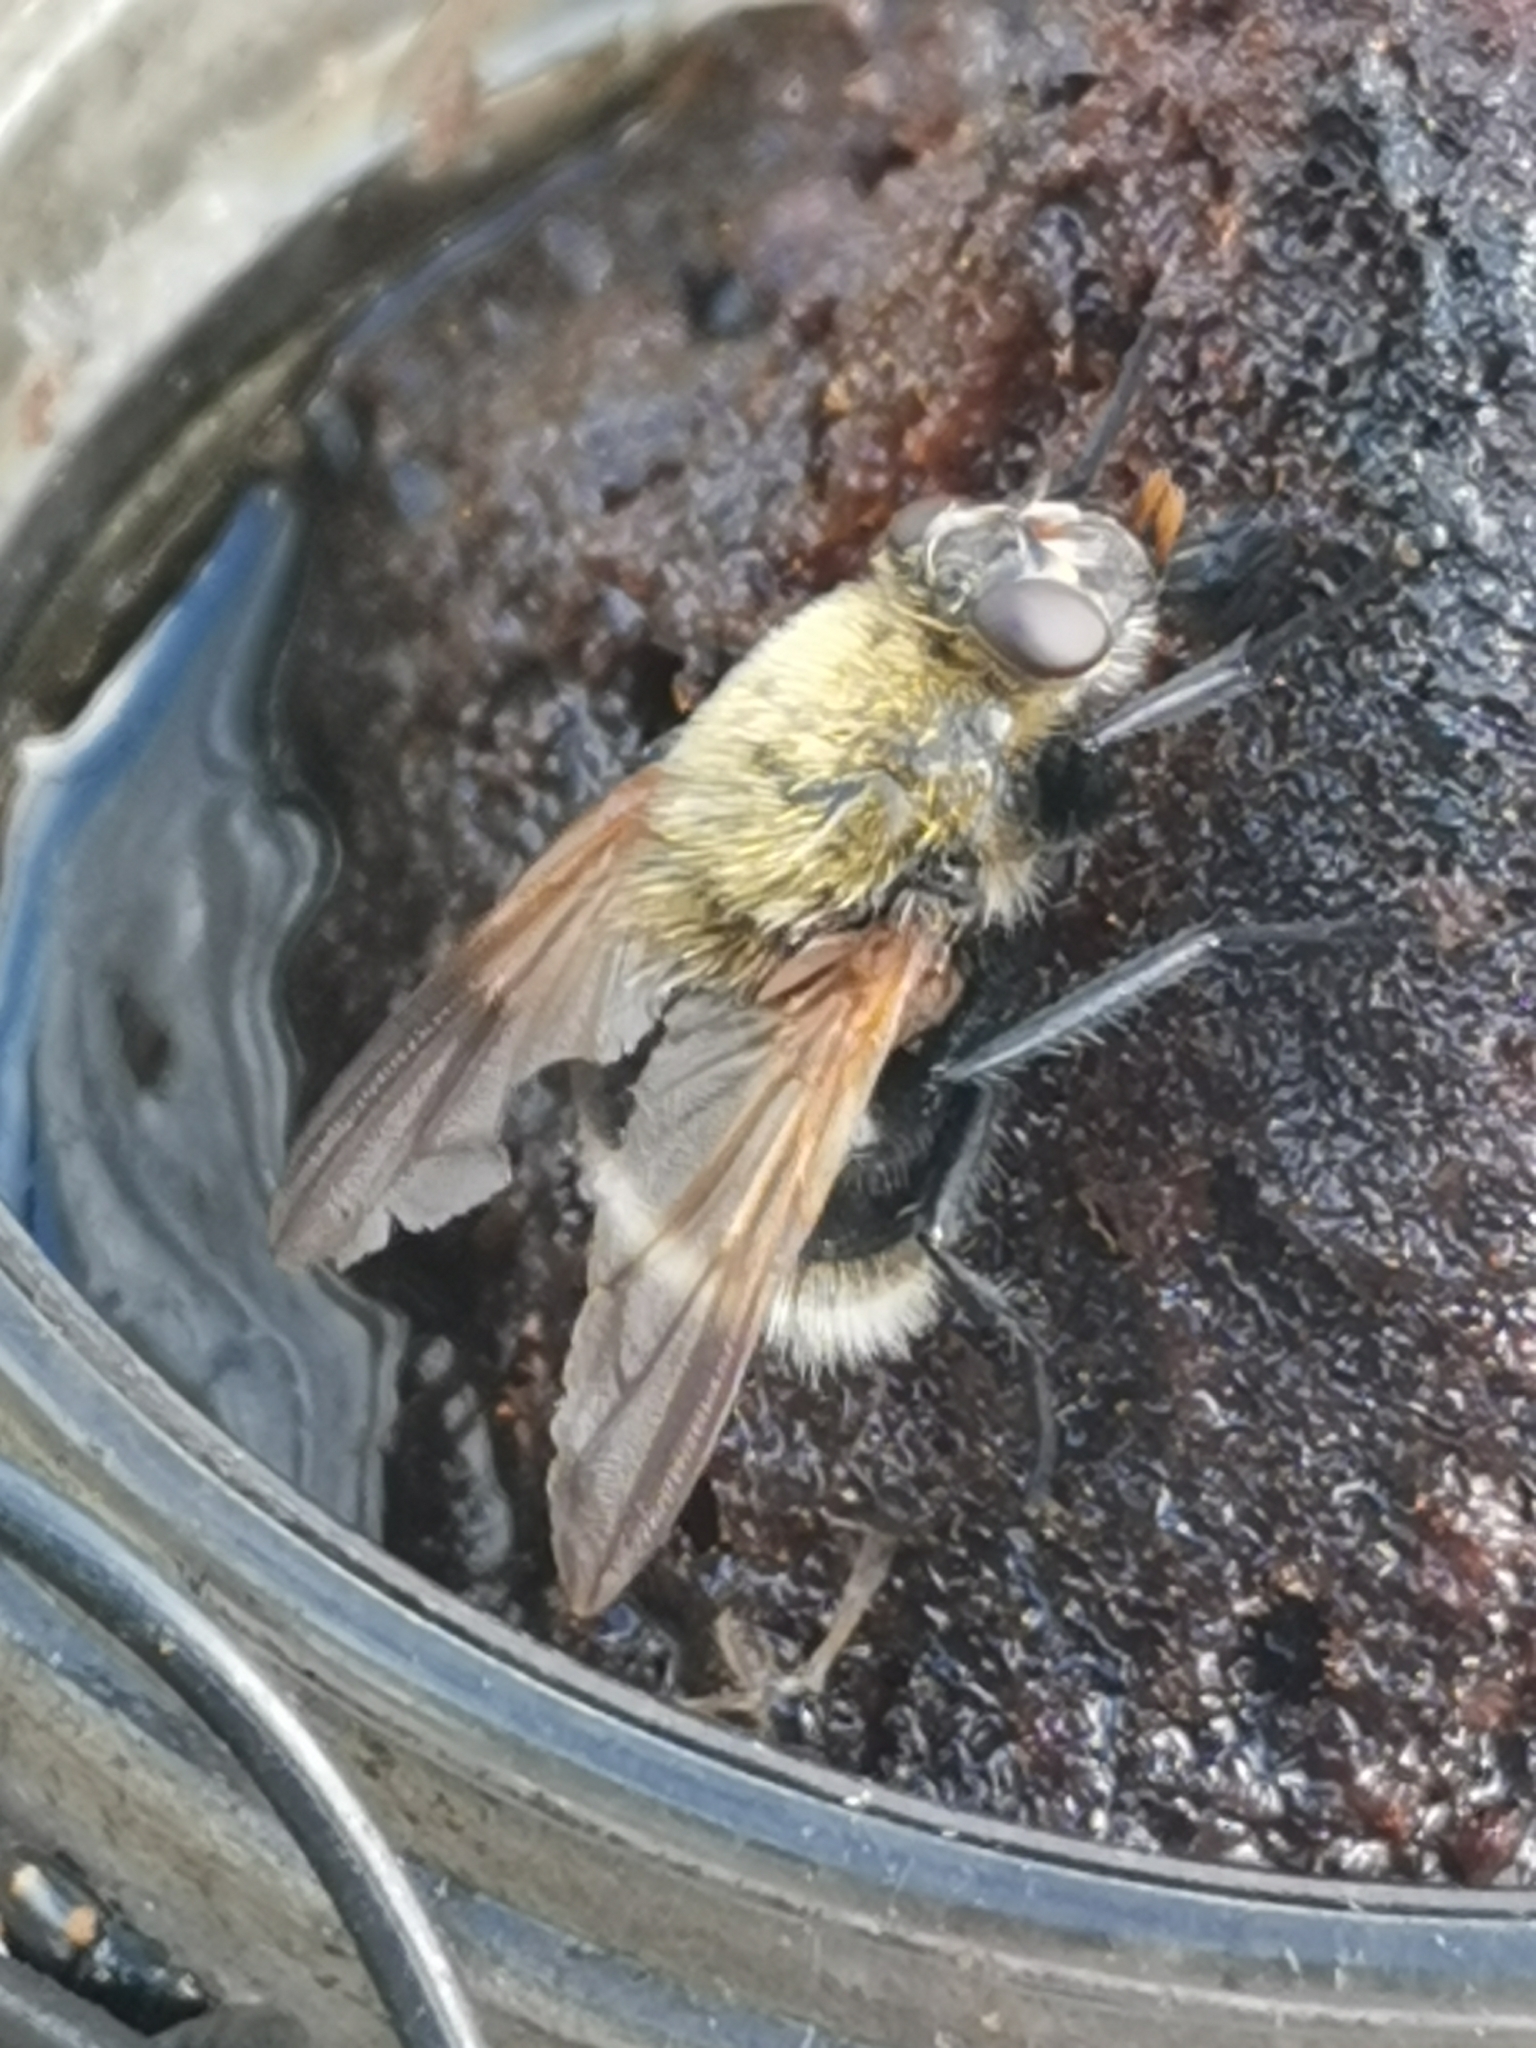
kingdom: Animalia
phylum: Arthropoda
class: Insecta
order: Diptera
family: Muscidae
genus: Mesembrina
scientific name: Mesembrina mystacea
